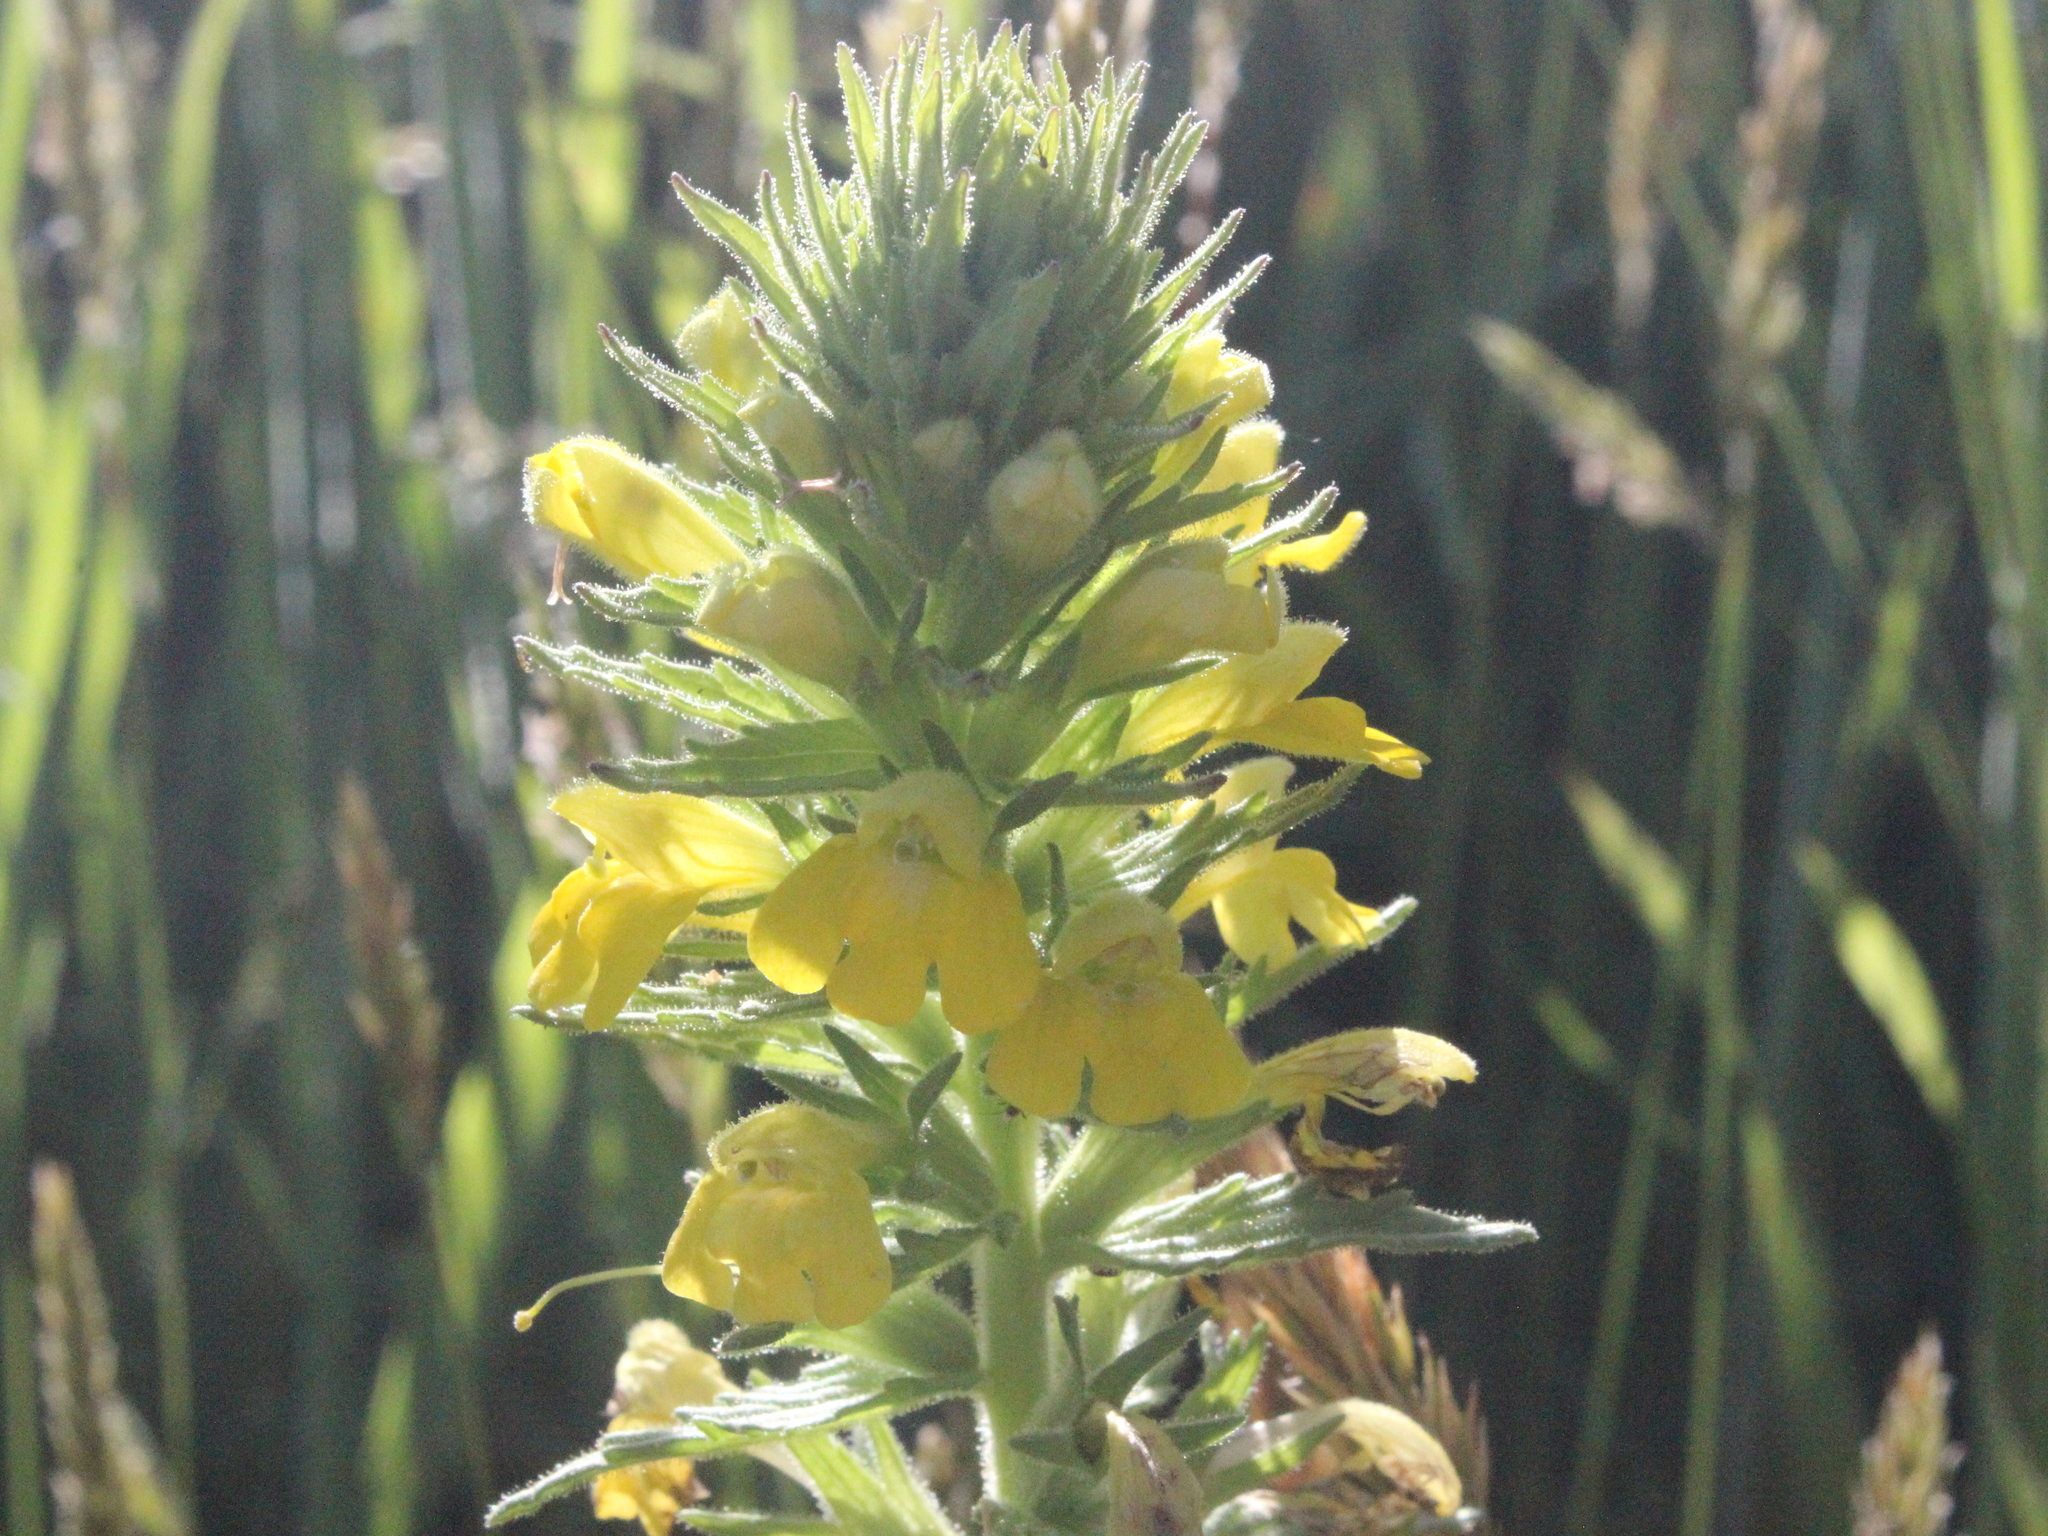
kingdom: Plantae
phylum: Tracheophyta
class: Magnoliopsida
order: Lamiales
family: Orobanchaceae
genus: Bellardia
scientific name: Bellardia viscosa
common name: Sticky parentucellia
